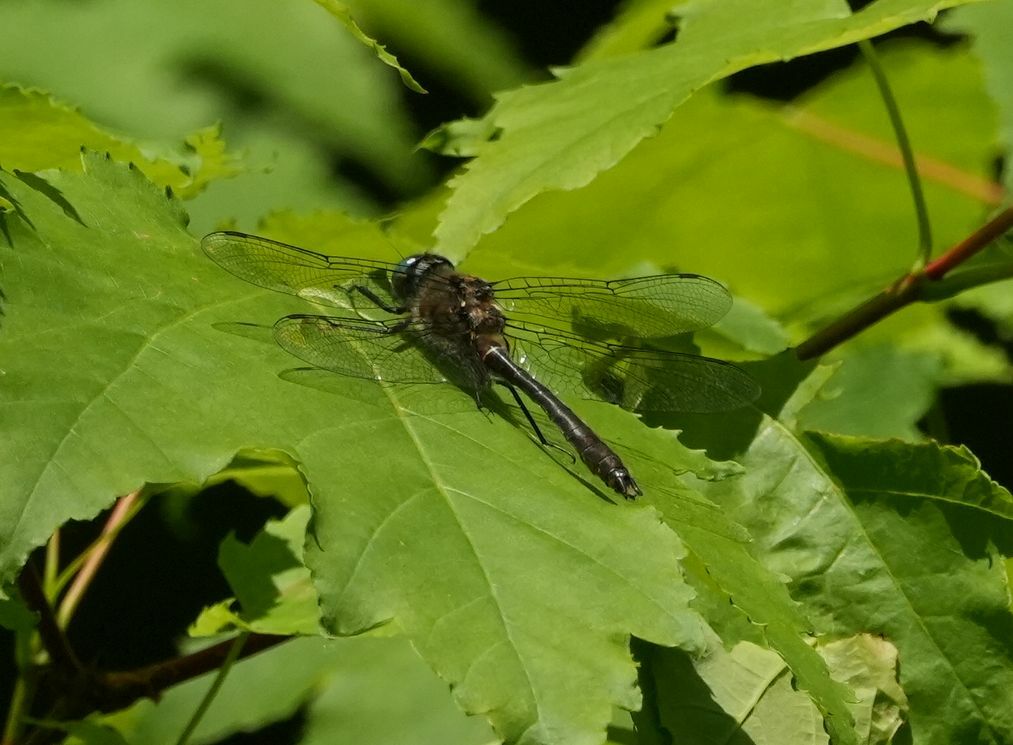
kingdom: Animalia
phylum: Arthropoda
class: Insecta
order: Odonata
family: Corduliidae
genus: Cordulia
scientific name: Cordulia shurtleffii
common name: American emerald
